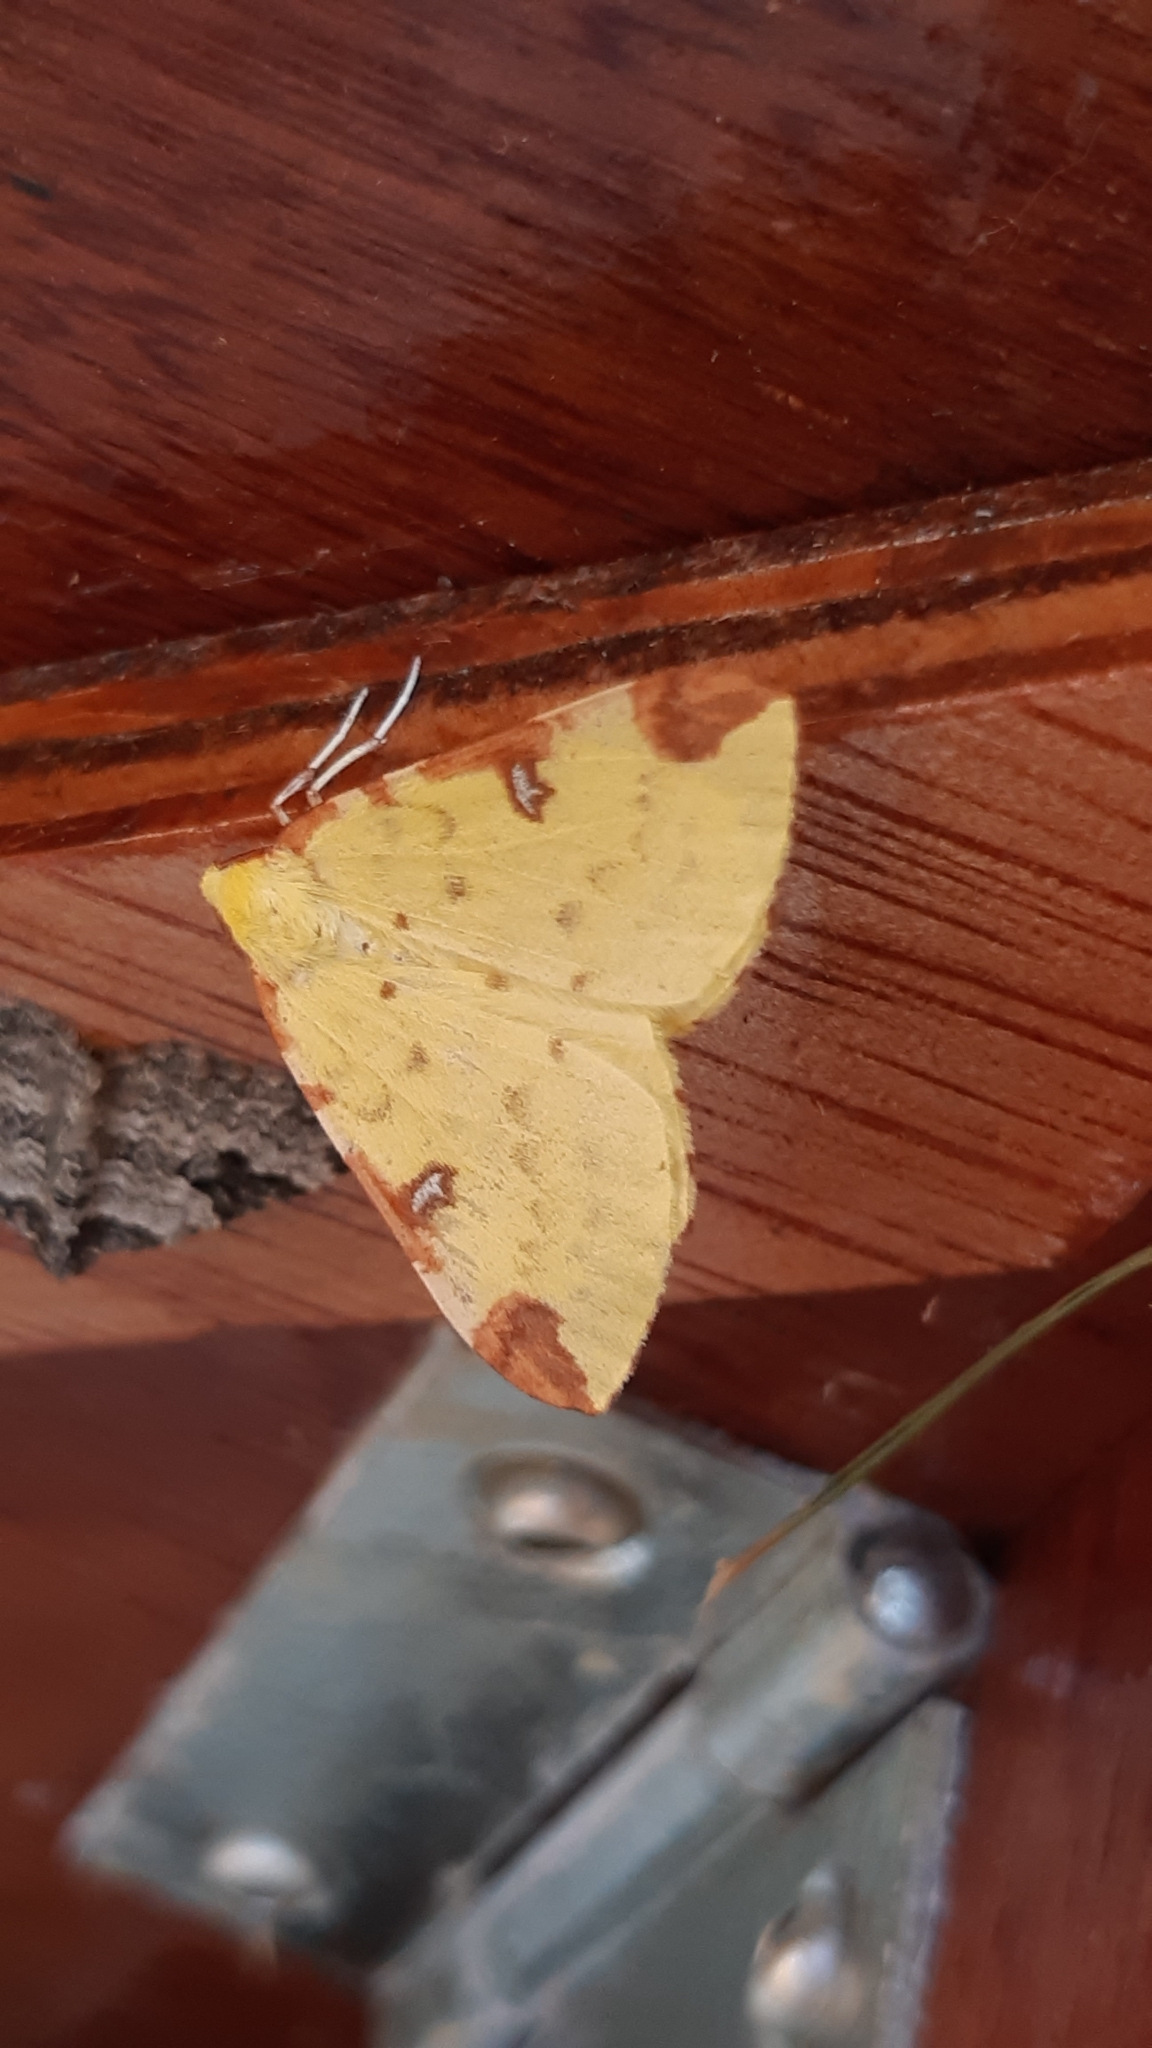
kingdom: Animalia
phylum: Arthropoda
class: Insecta
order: Lepidoptera
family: Geometridae
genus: Opisthograptis
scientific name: Opisthograptis luteolata
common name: Brimstone moth
